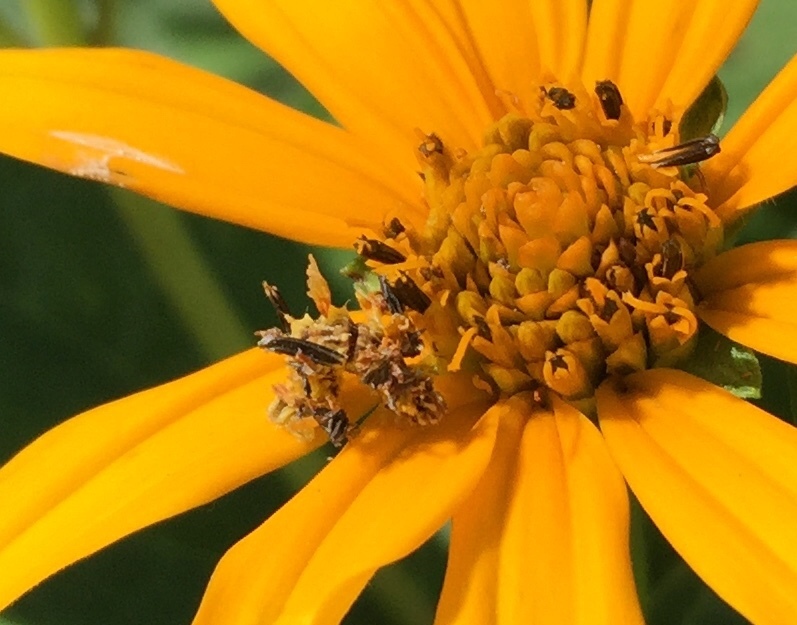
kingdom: Animalia
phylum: Arthropoda
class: Insecta
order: Lepidoptera
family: Geometridae
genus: Synchlora
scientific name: Synchlora aerata
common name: Wavy-lined emerald
